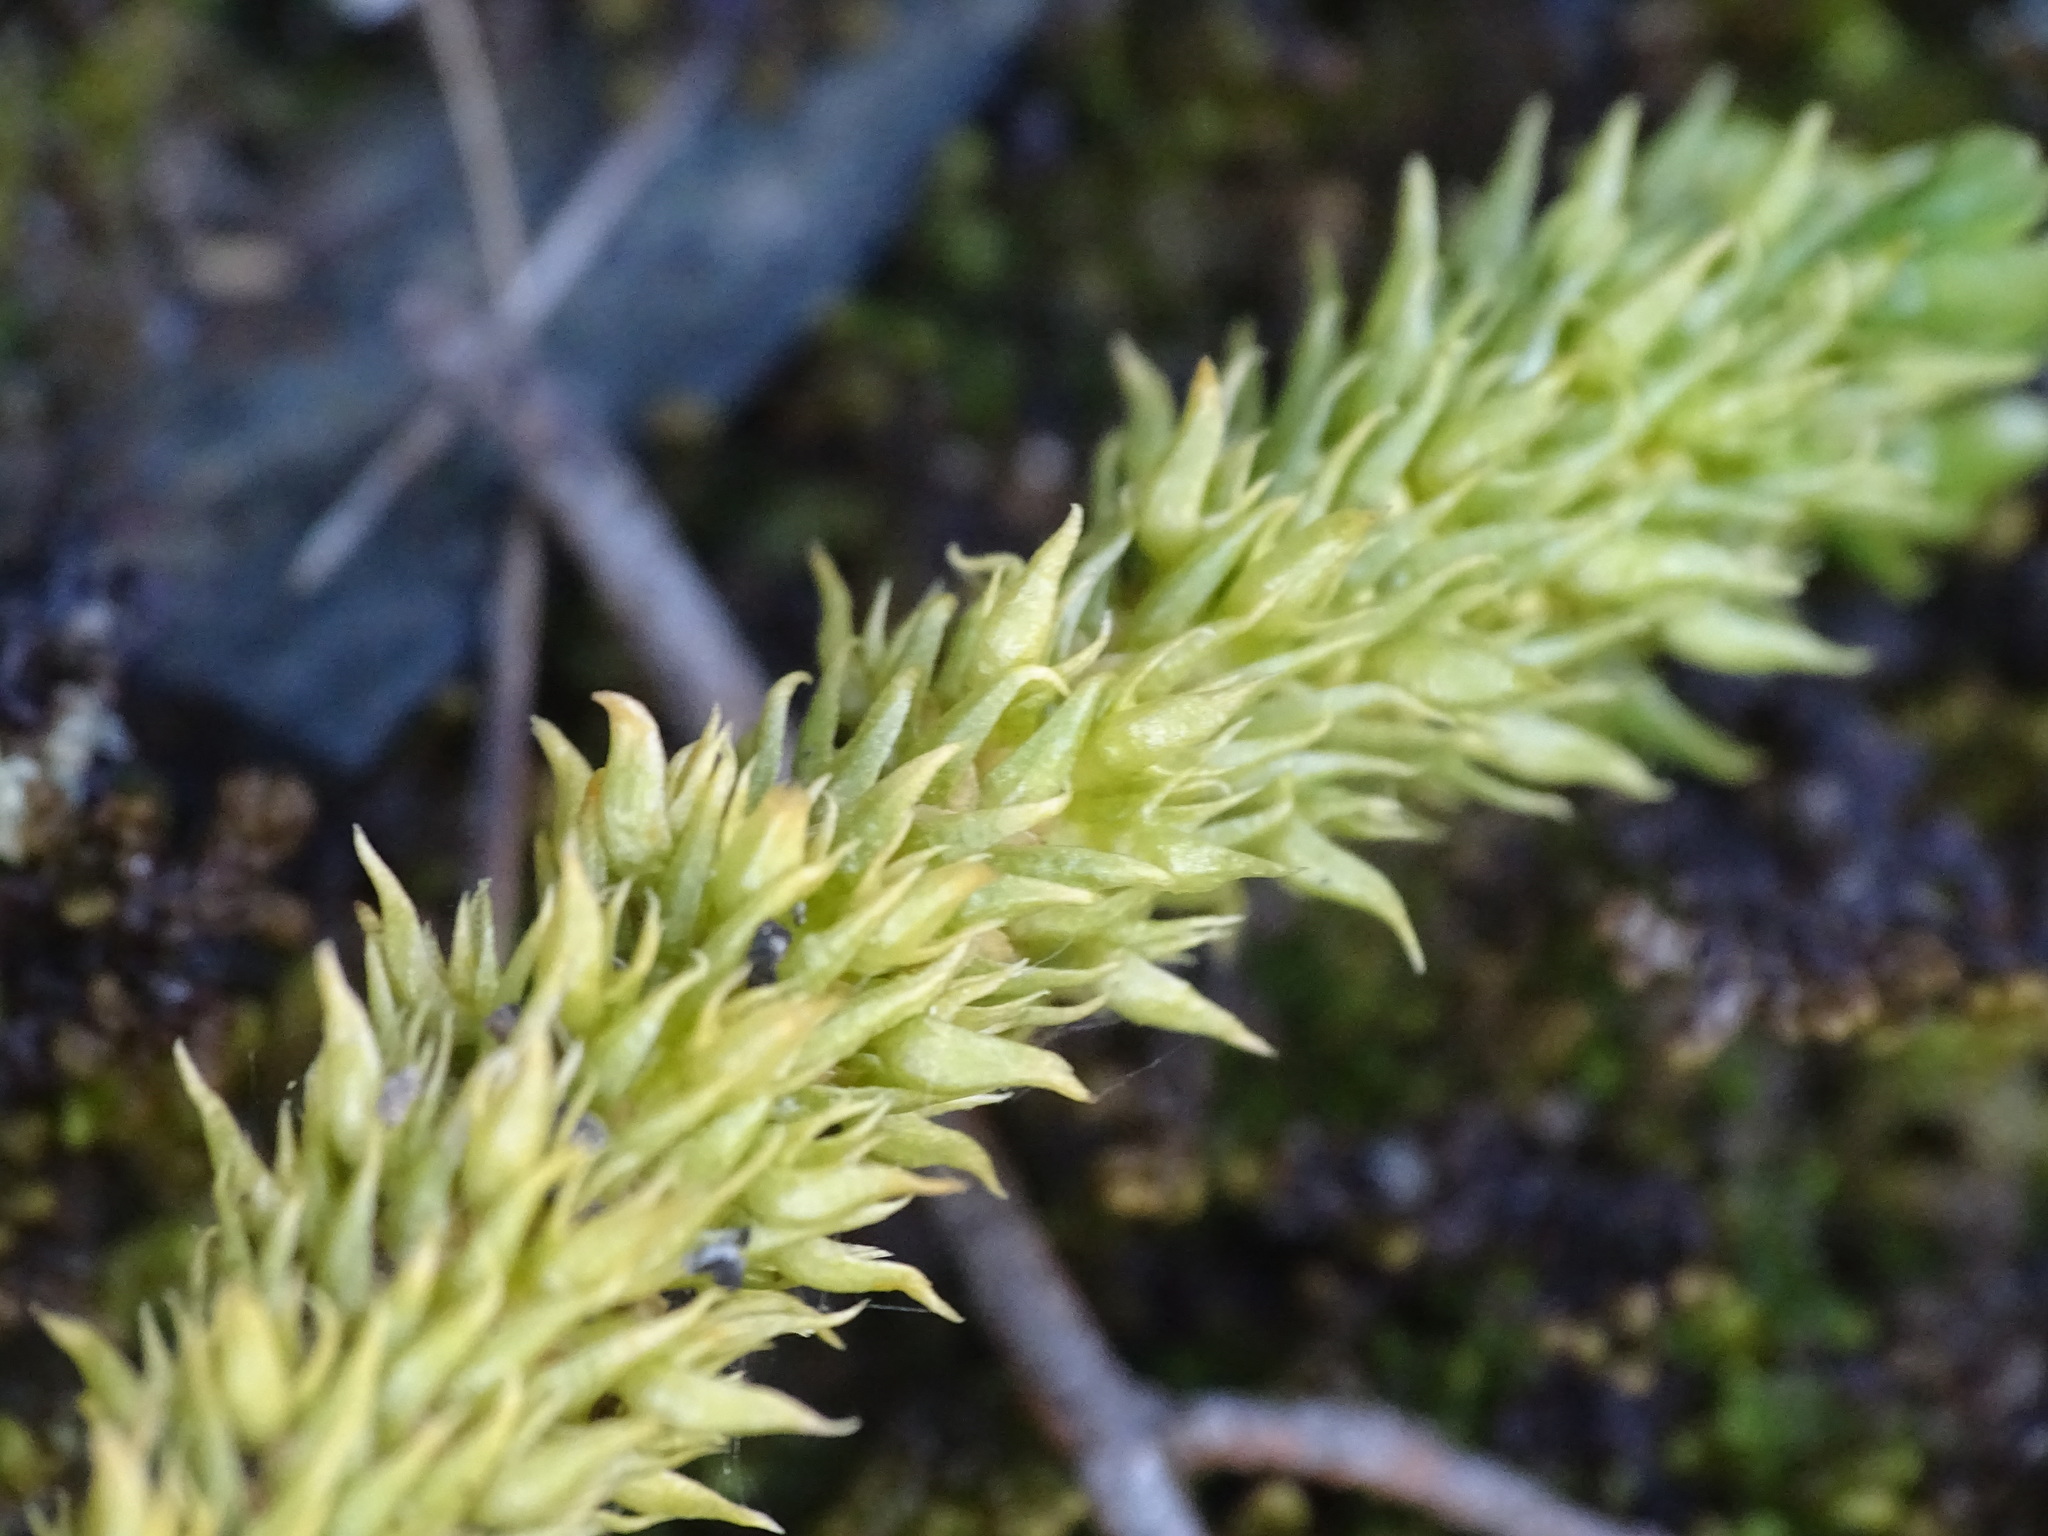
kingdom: Plantae
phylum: Tracheophyta
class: Lycopodiopsida
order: Lycopodiales
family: Lycopodiaceae
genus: Huperzia
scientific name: Huperzia selago
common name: Northern firmoss
